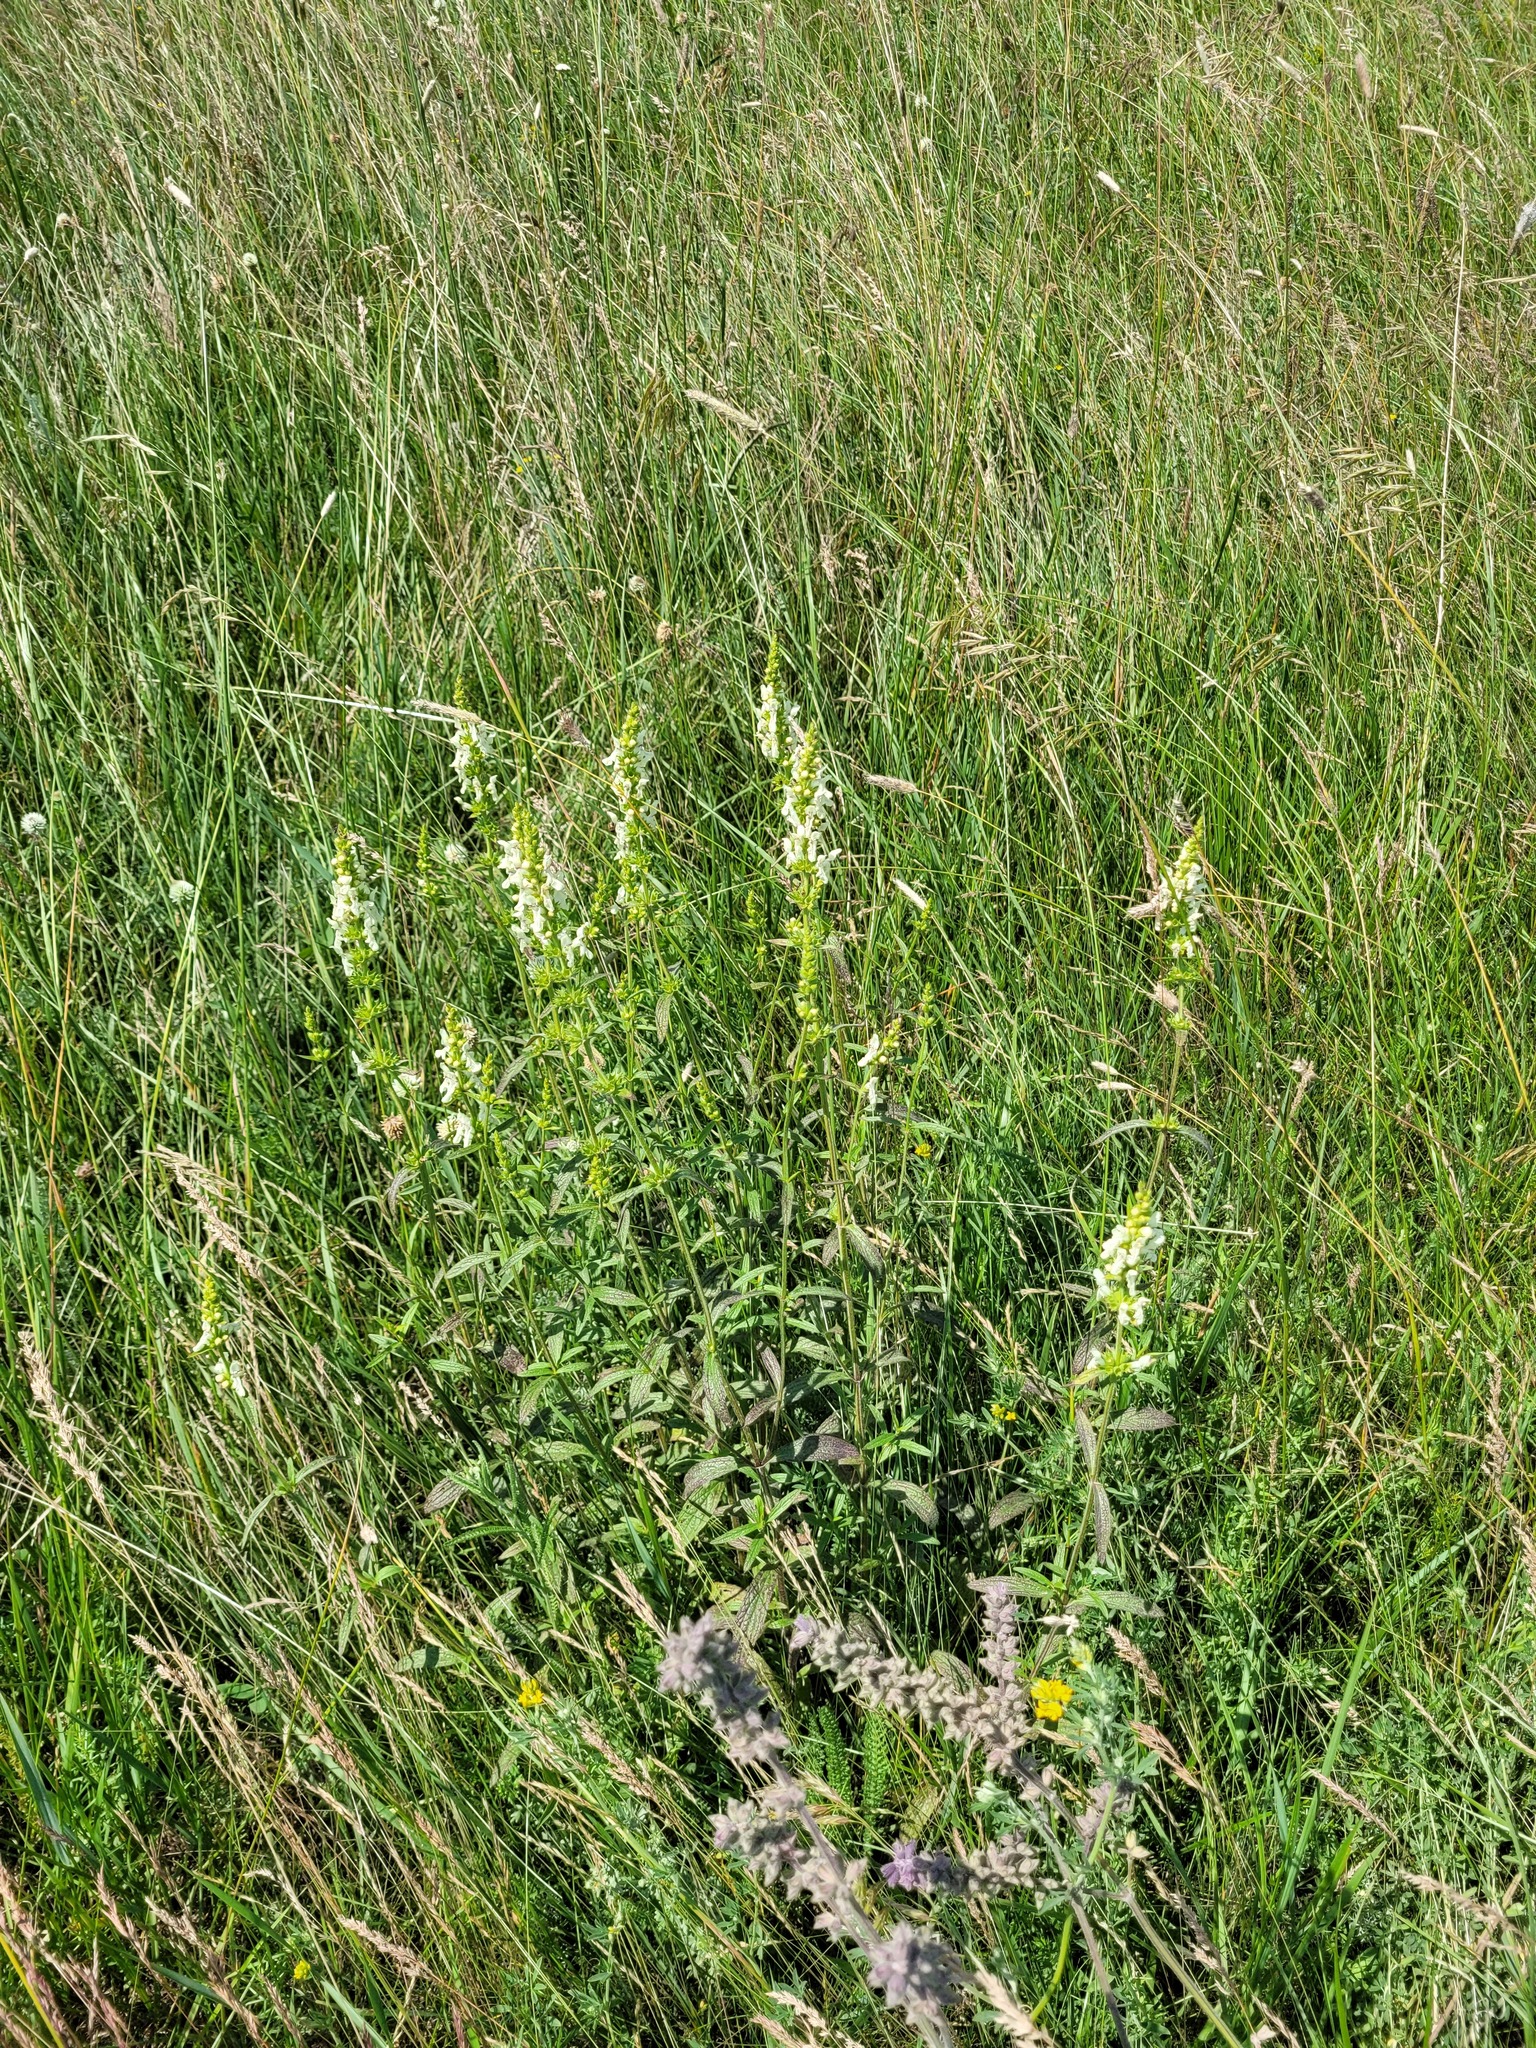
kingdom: Plantae
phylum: Tracheophyta
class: Magnoliopsida
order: Lamiales
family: Lamiaceae
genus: Stachys
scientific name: Stachys recta
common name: Perennial yellow-woundwort
